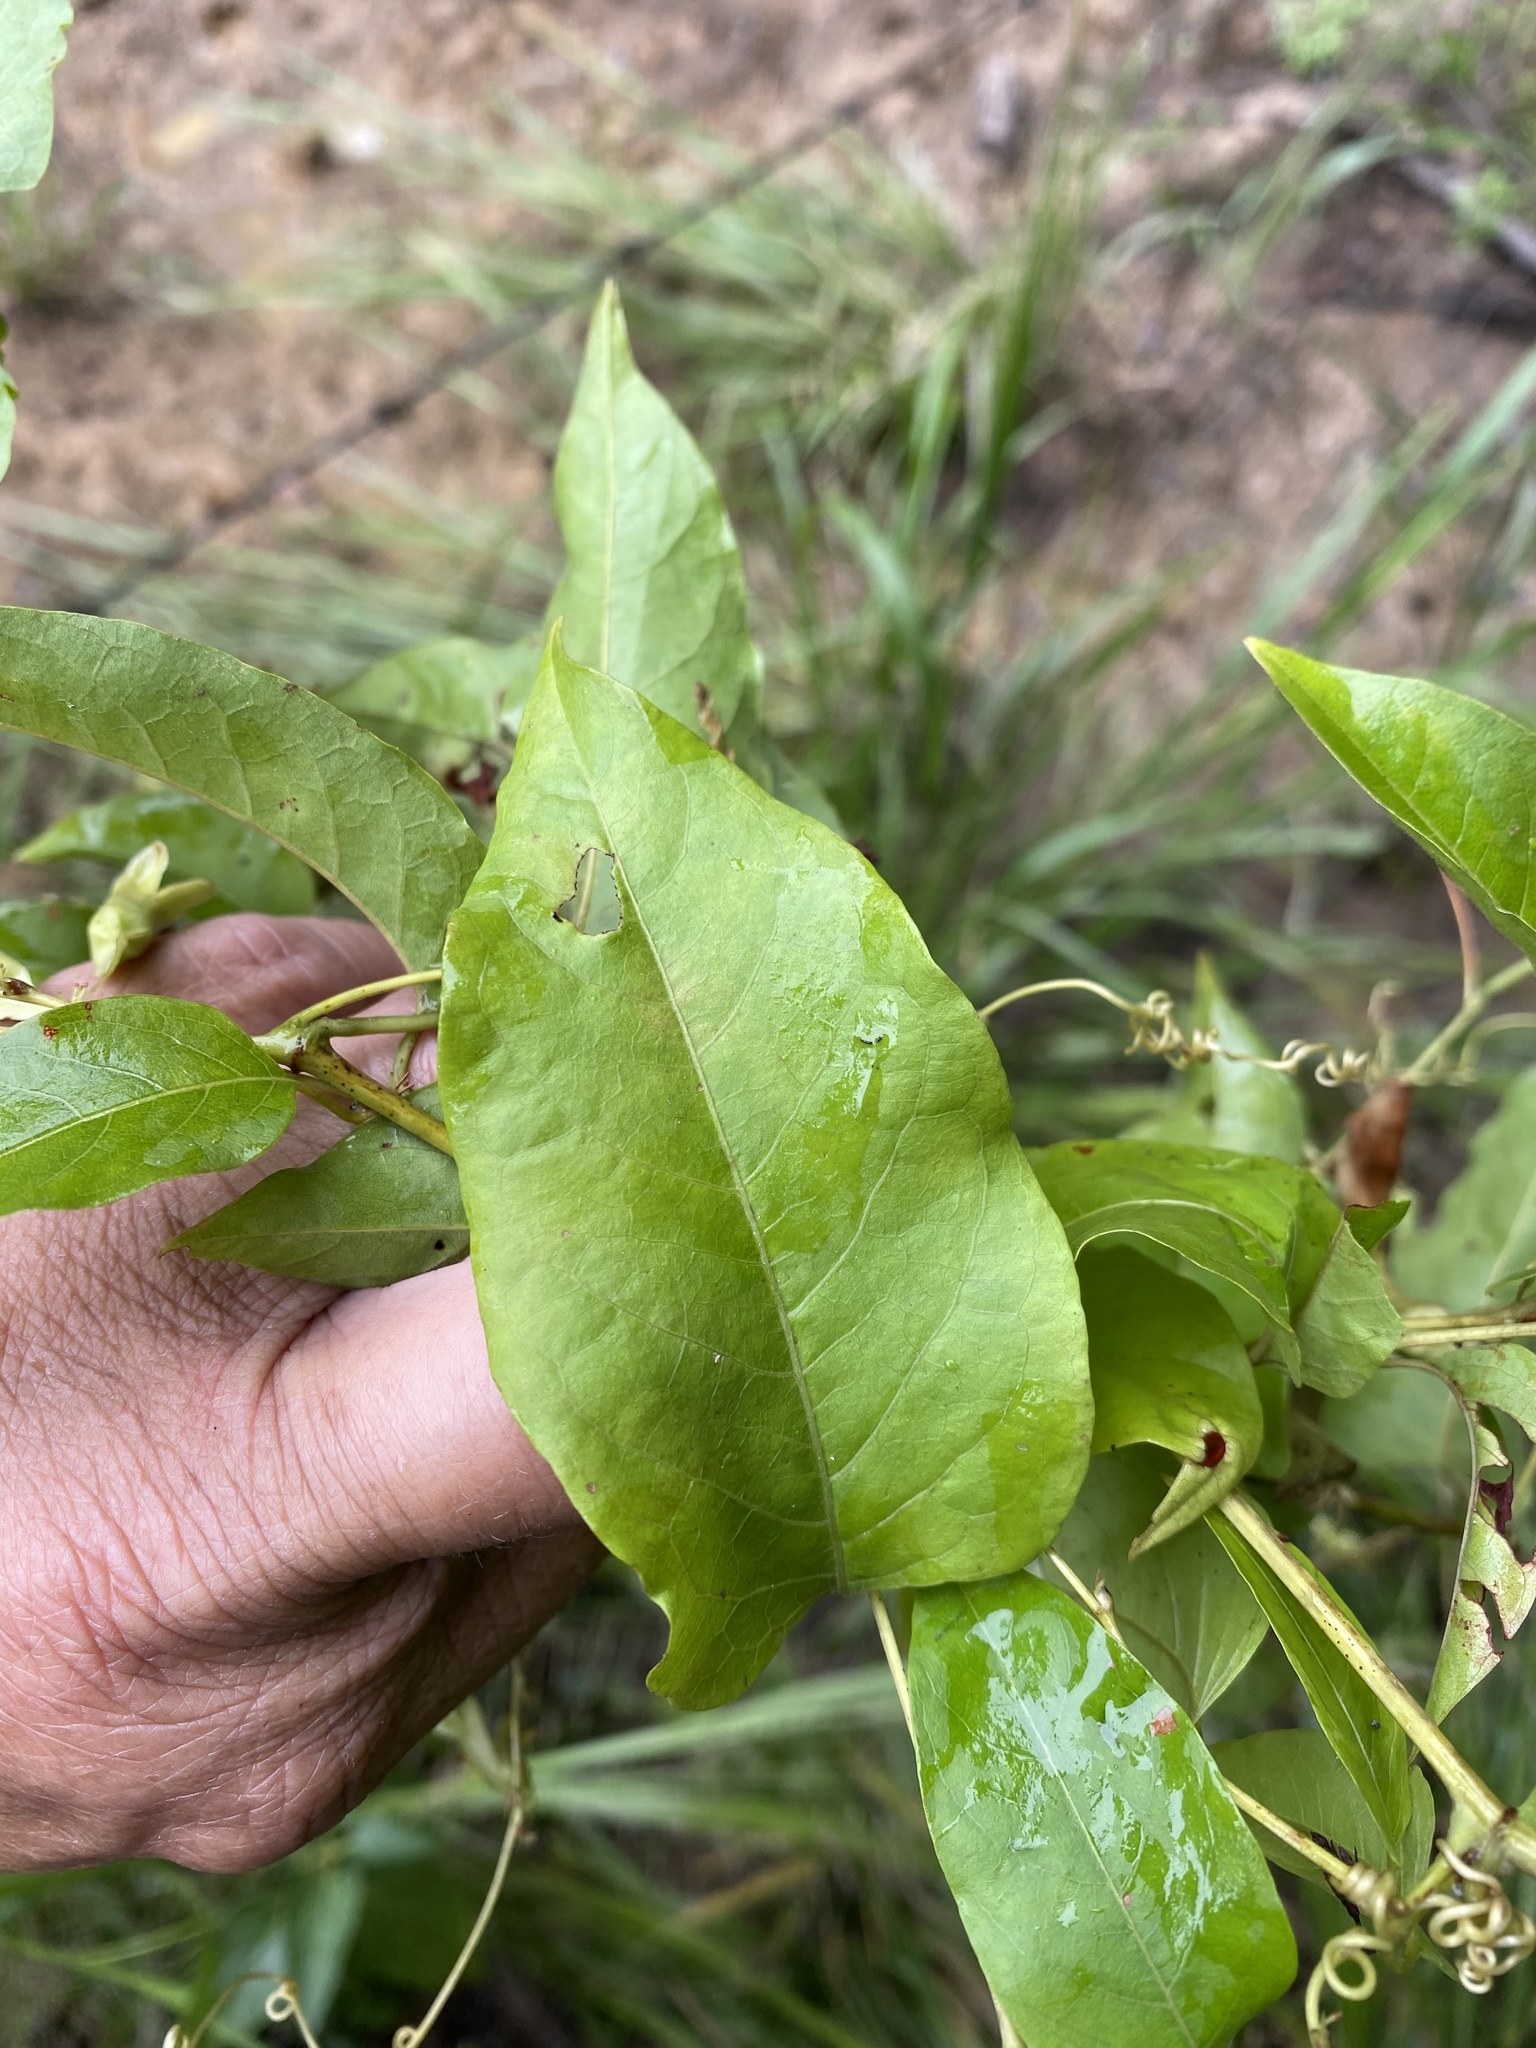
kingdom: Plantae
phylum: Tracheophyta
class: Magnoliopsida
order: Caryophyllales
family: Polygonaceae
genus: Brunnichia
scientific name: Brunnichia ovata
